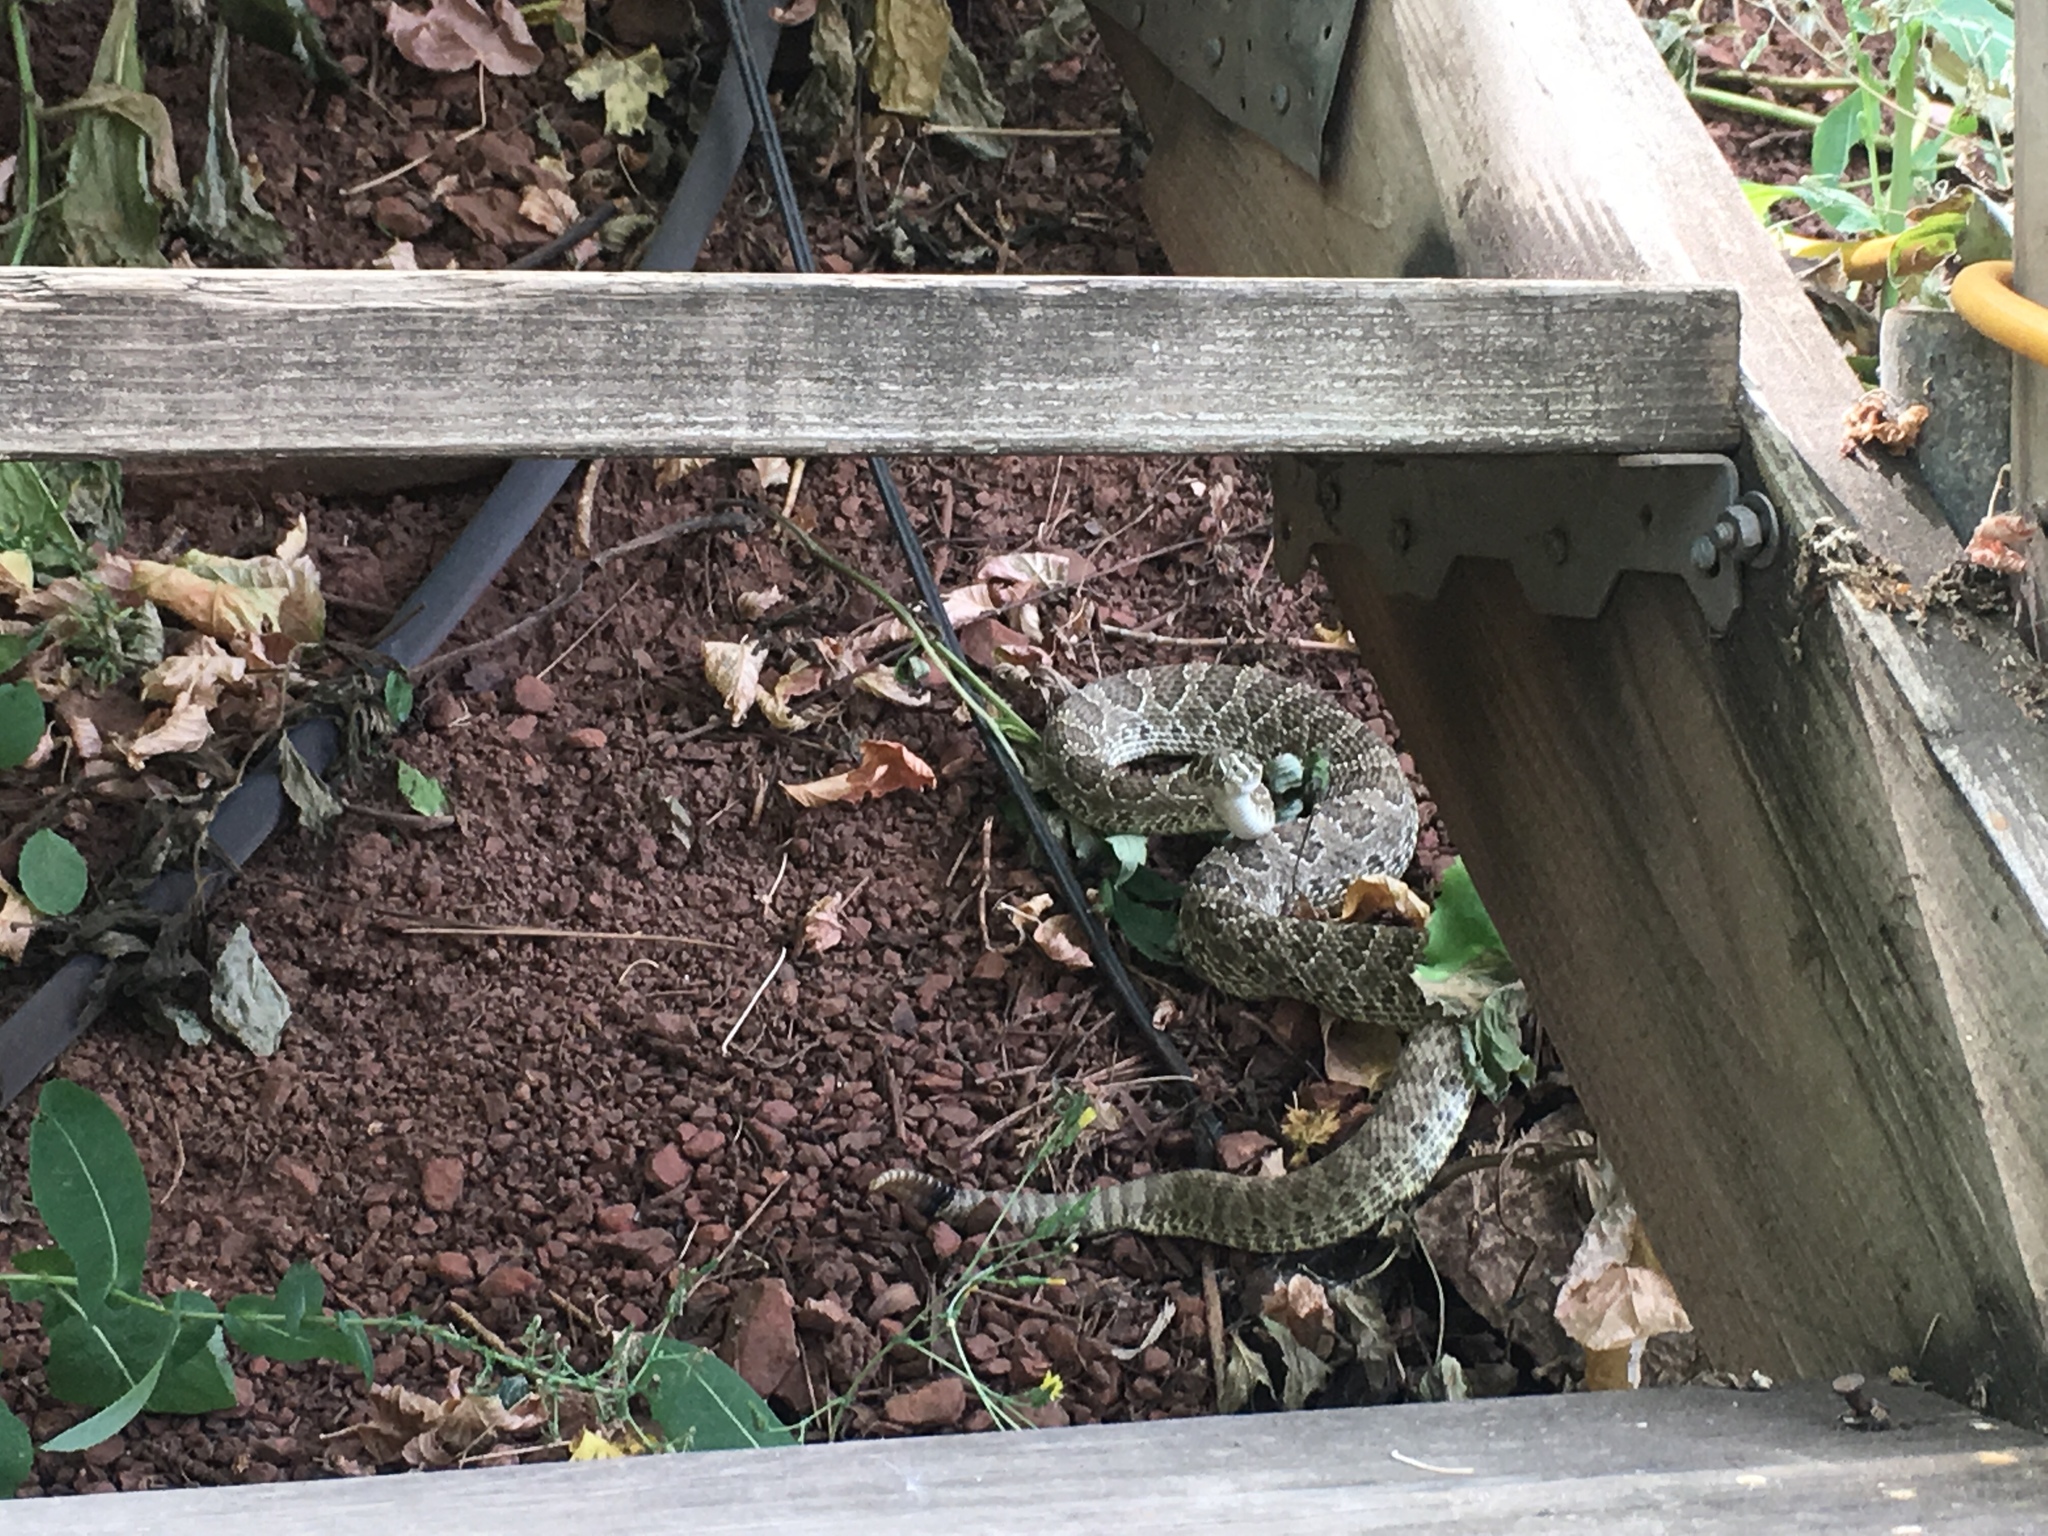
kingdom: Animalia
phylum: Chordata
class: Squamata
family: Viperidae
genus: Crotalus
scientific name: Crotalus viridis
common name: Prairie rattlesnake
